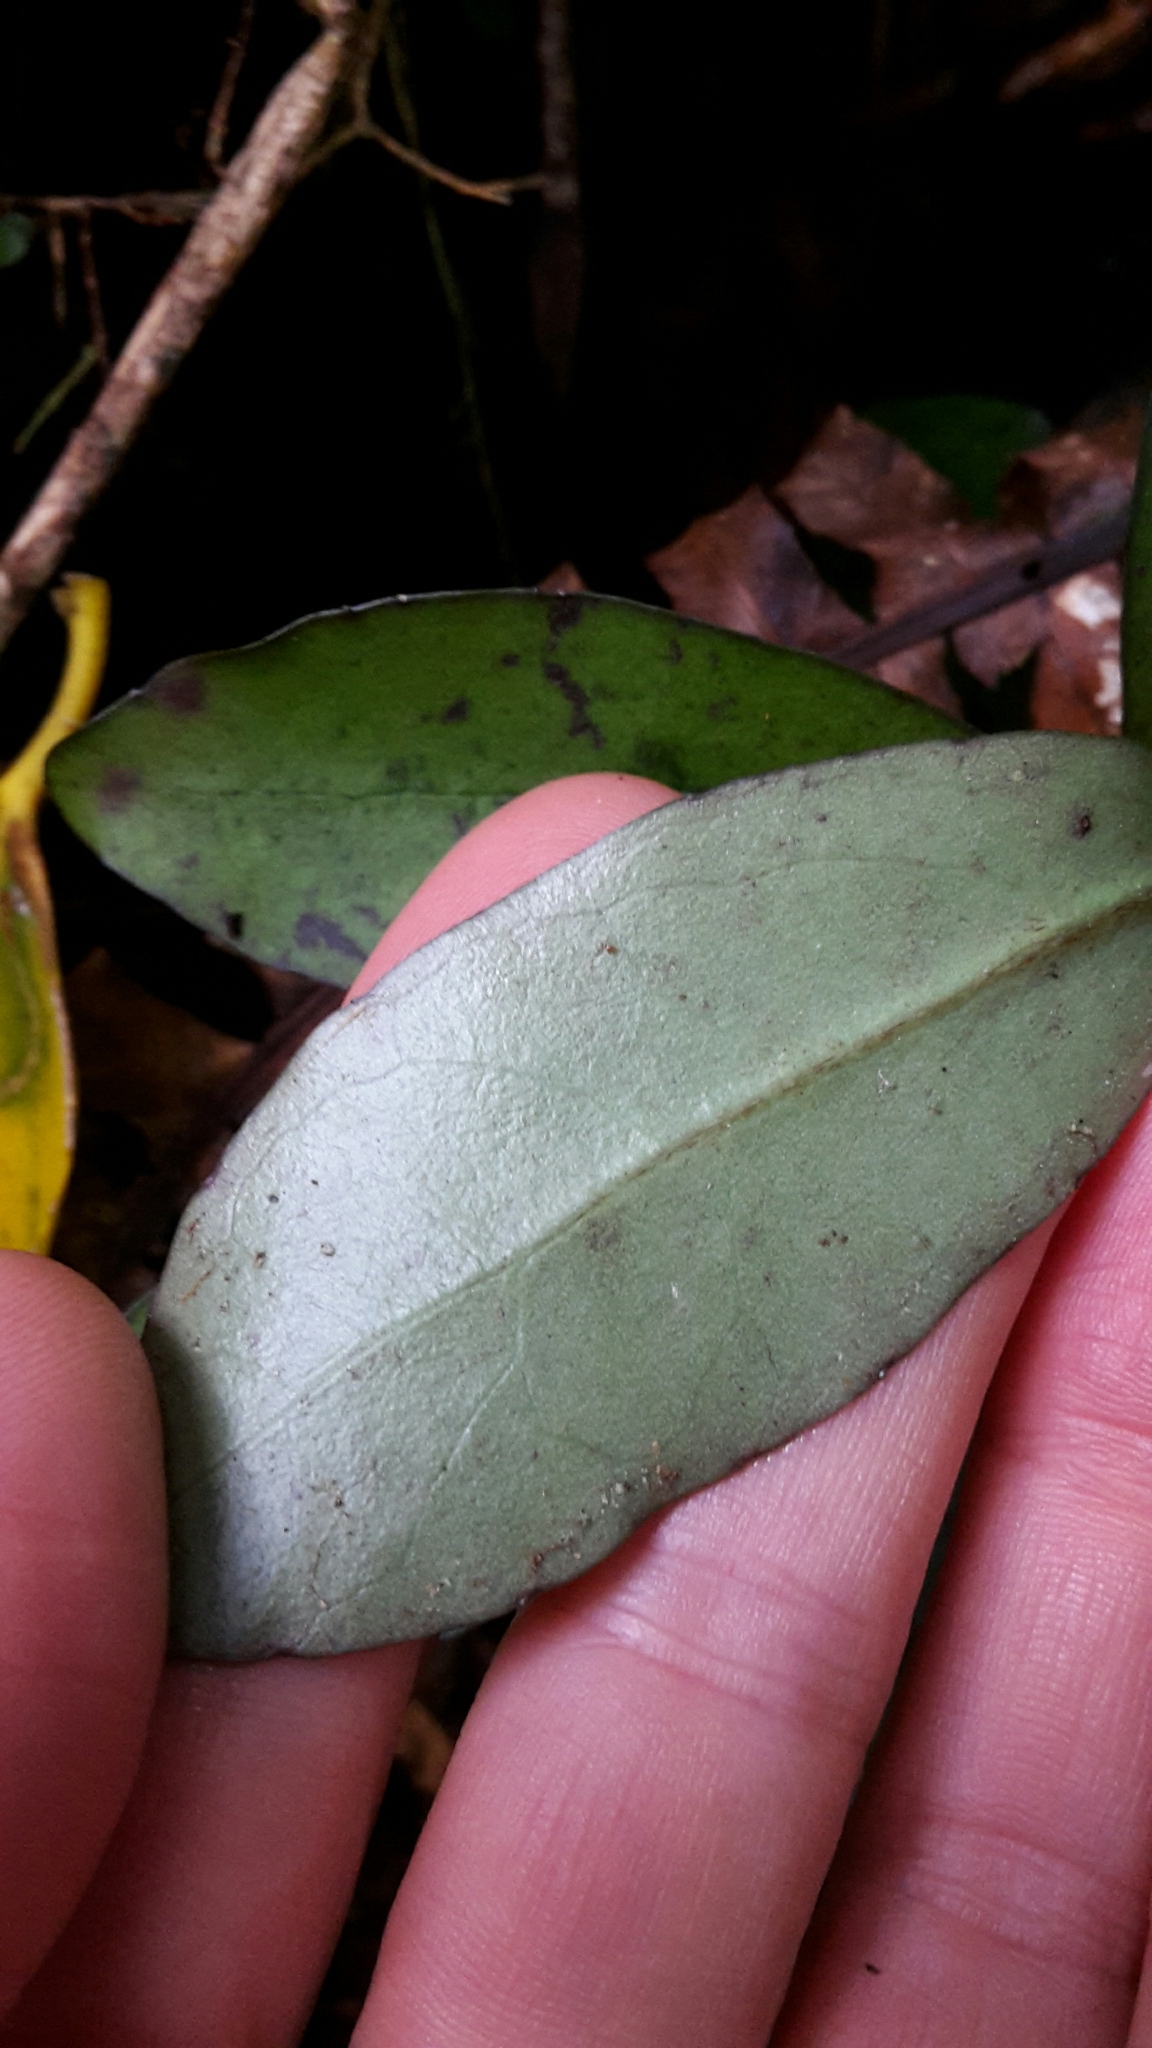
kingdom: Plantae
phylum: Tracheophyta
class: Magnoliopsida
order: Asterales
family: Alseuosmiaceae
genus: Alseuosmia
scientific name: Alseuosmia pusilla
